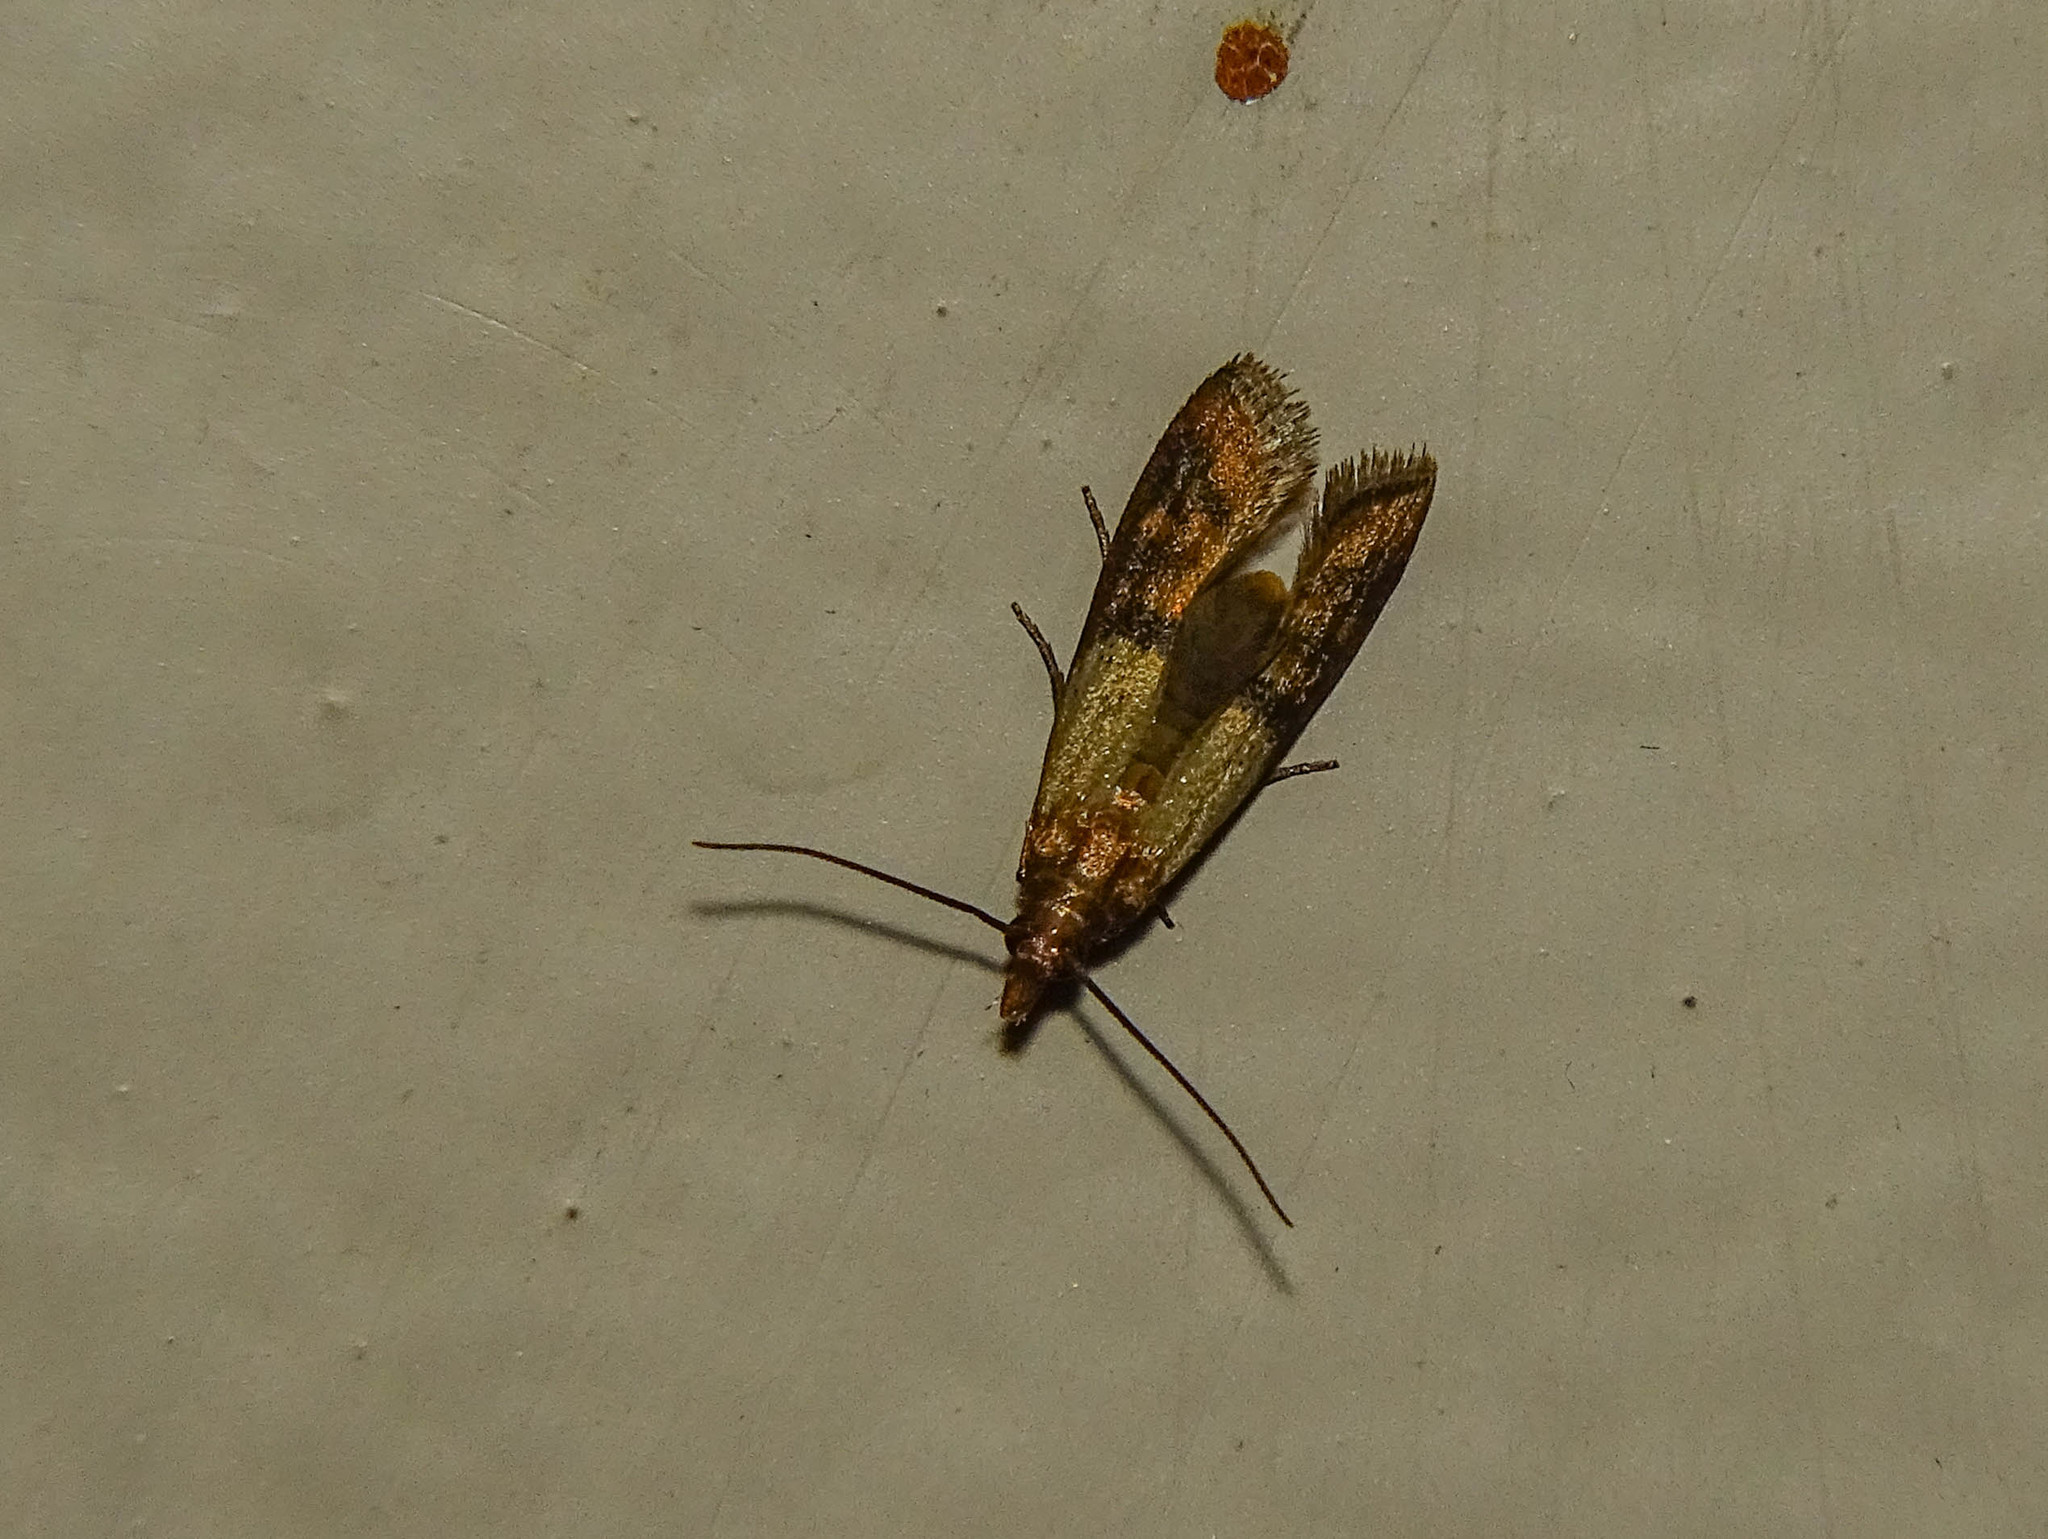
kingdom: Animalia
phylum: Arthropoda
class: Insecta
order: Lepidoptera
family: Pyralidae
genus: Plodia
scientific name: Plodia interpunctella
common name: Indian meal moth
